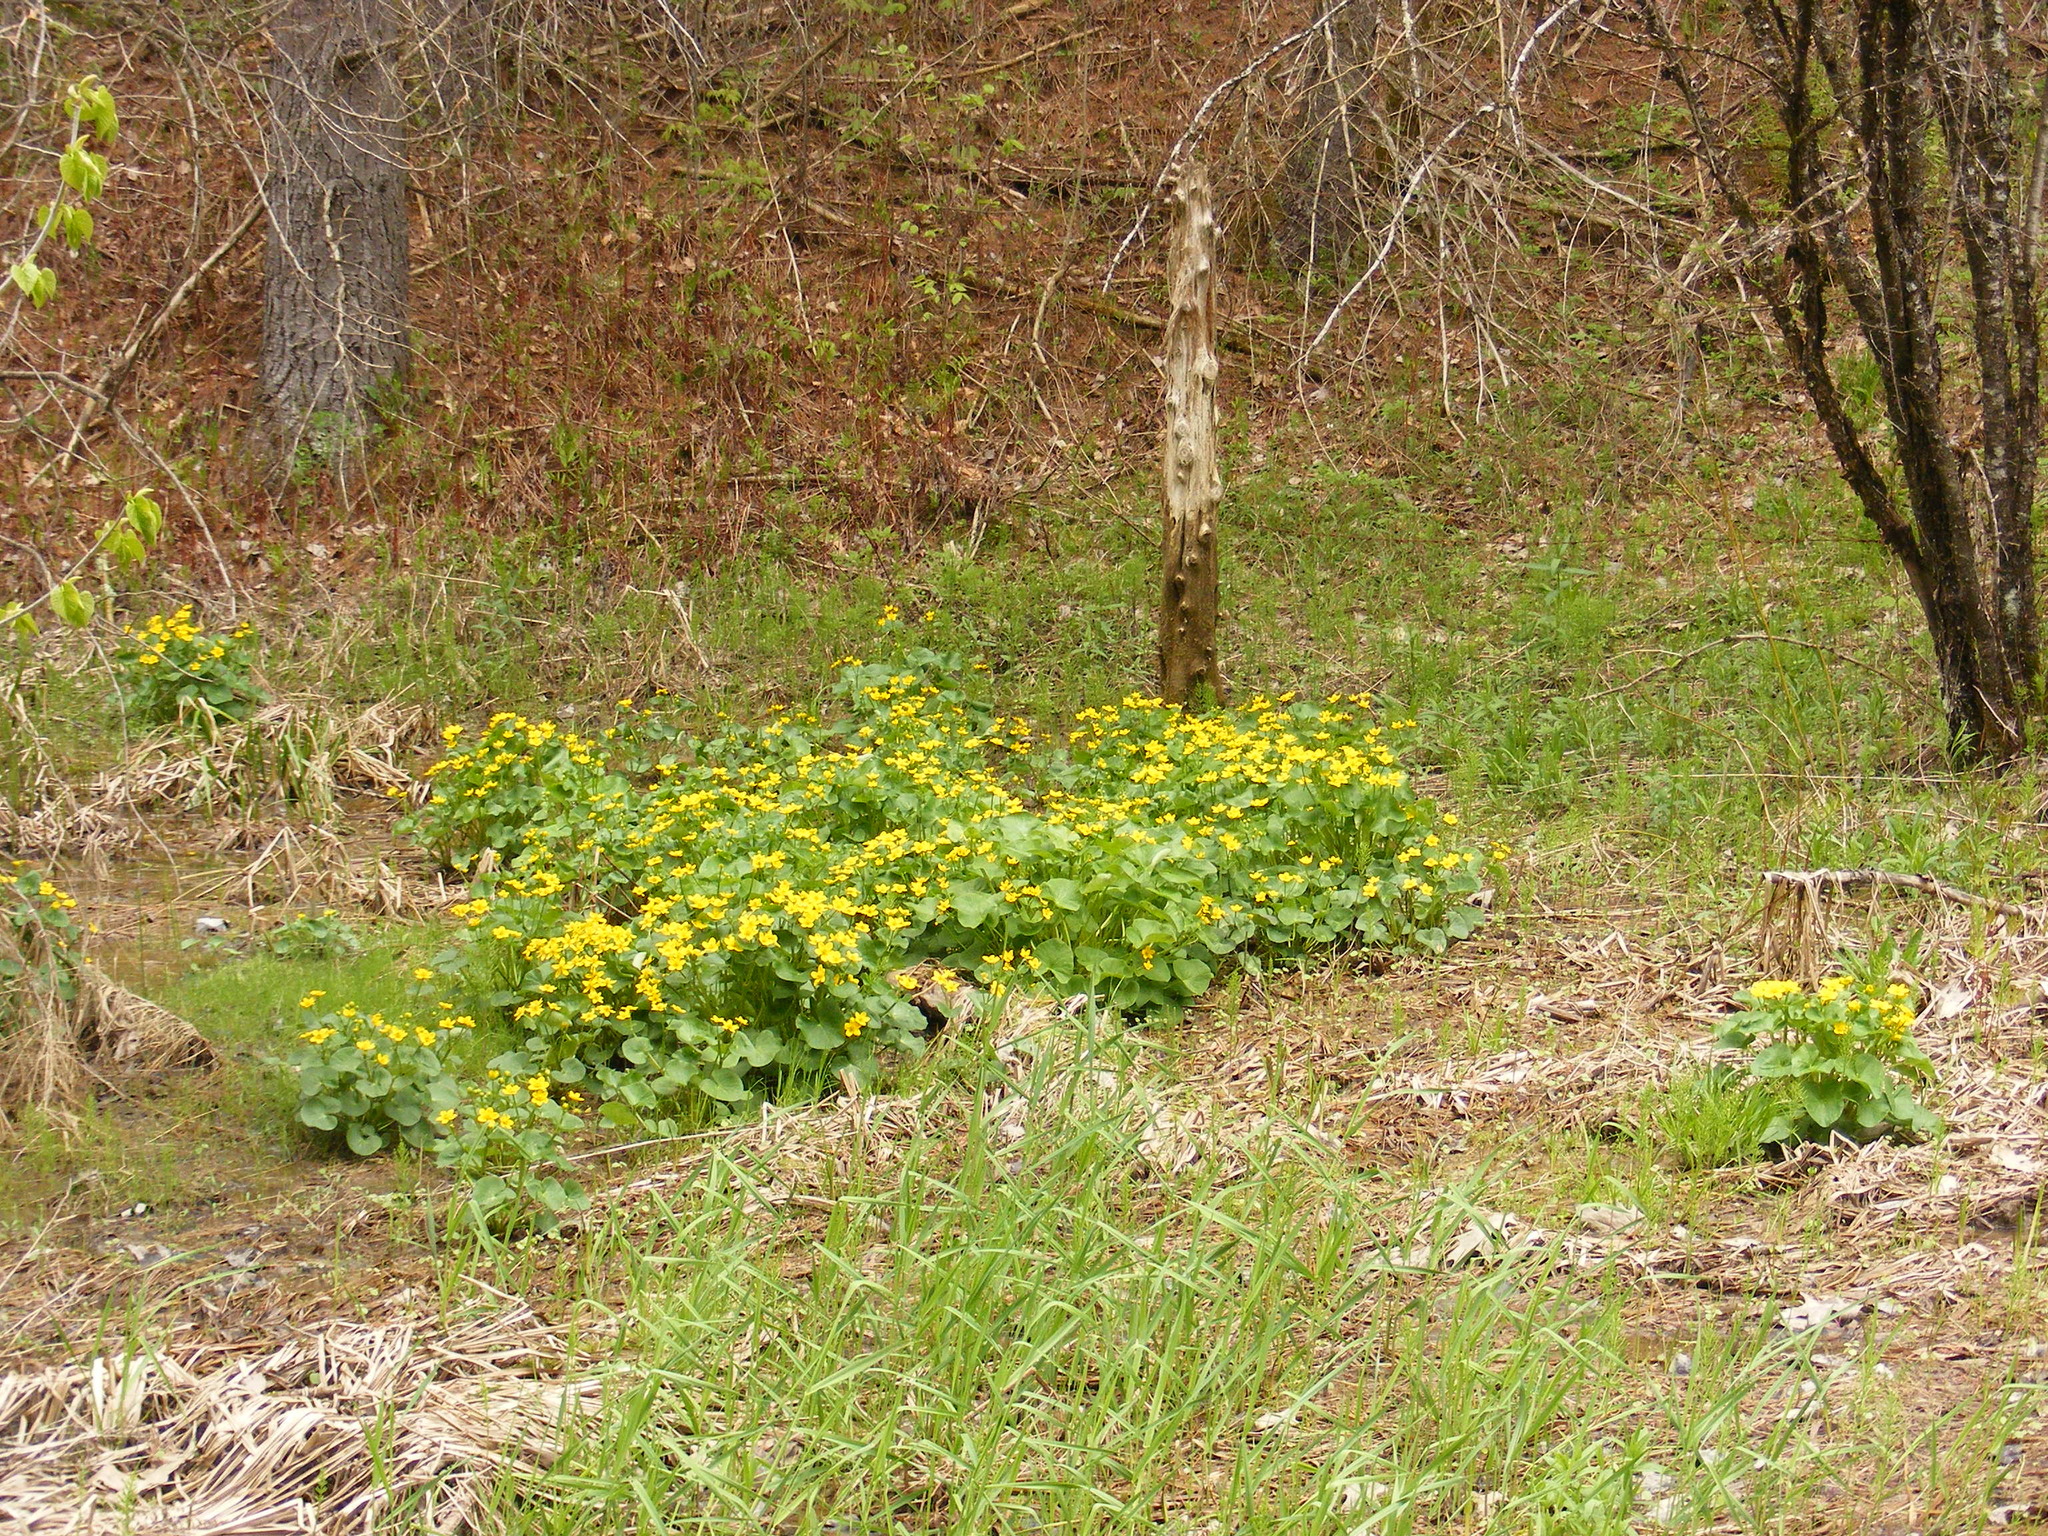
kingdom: Plantae
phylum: Tracheophyta
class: Magnoliopsida
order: Ranunculales
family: Ranunculaceae
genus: Caltha
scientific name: Caltha palustris
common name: Marsh marigold
